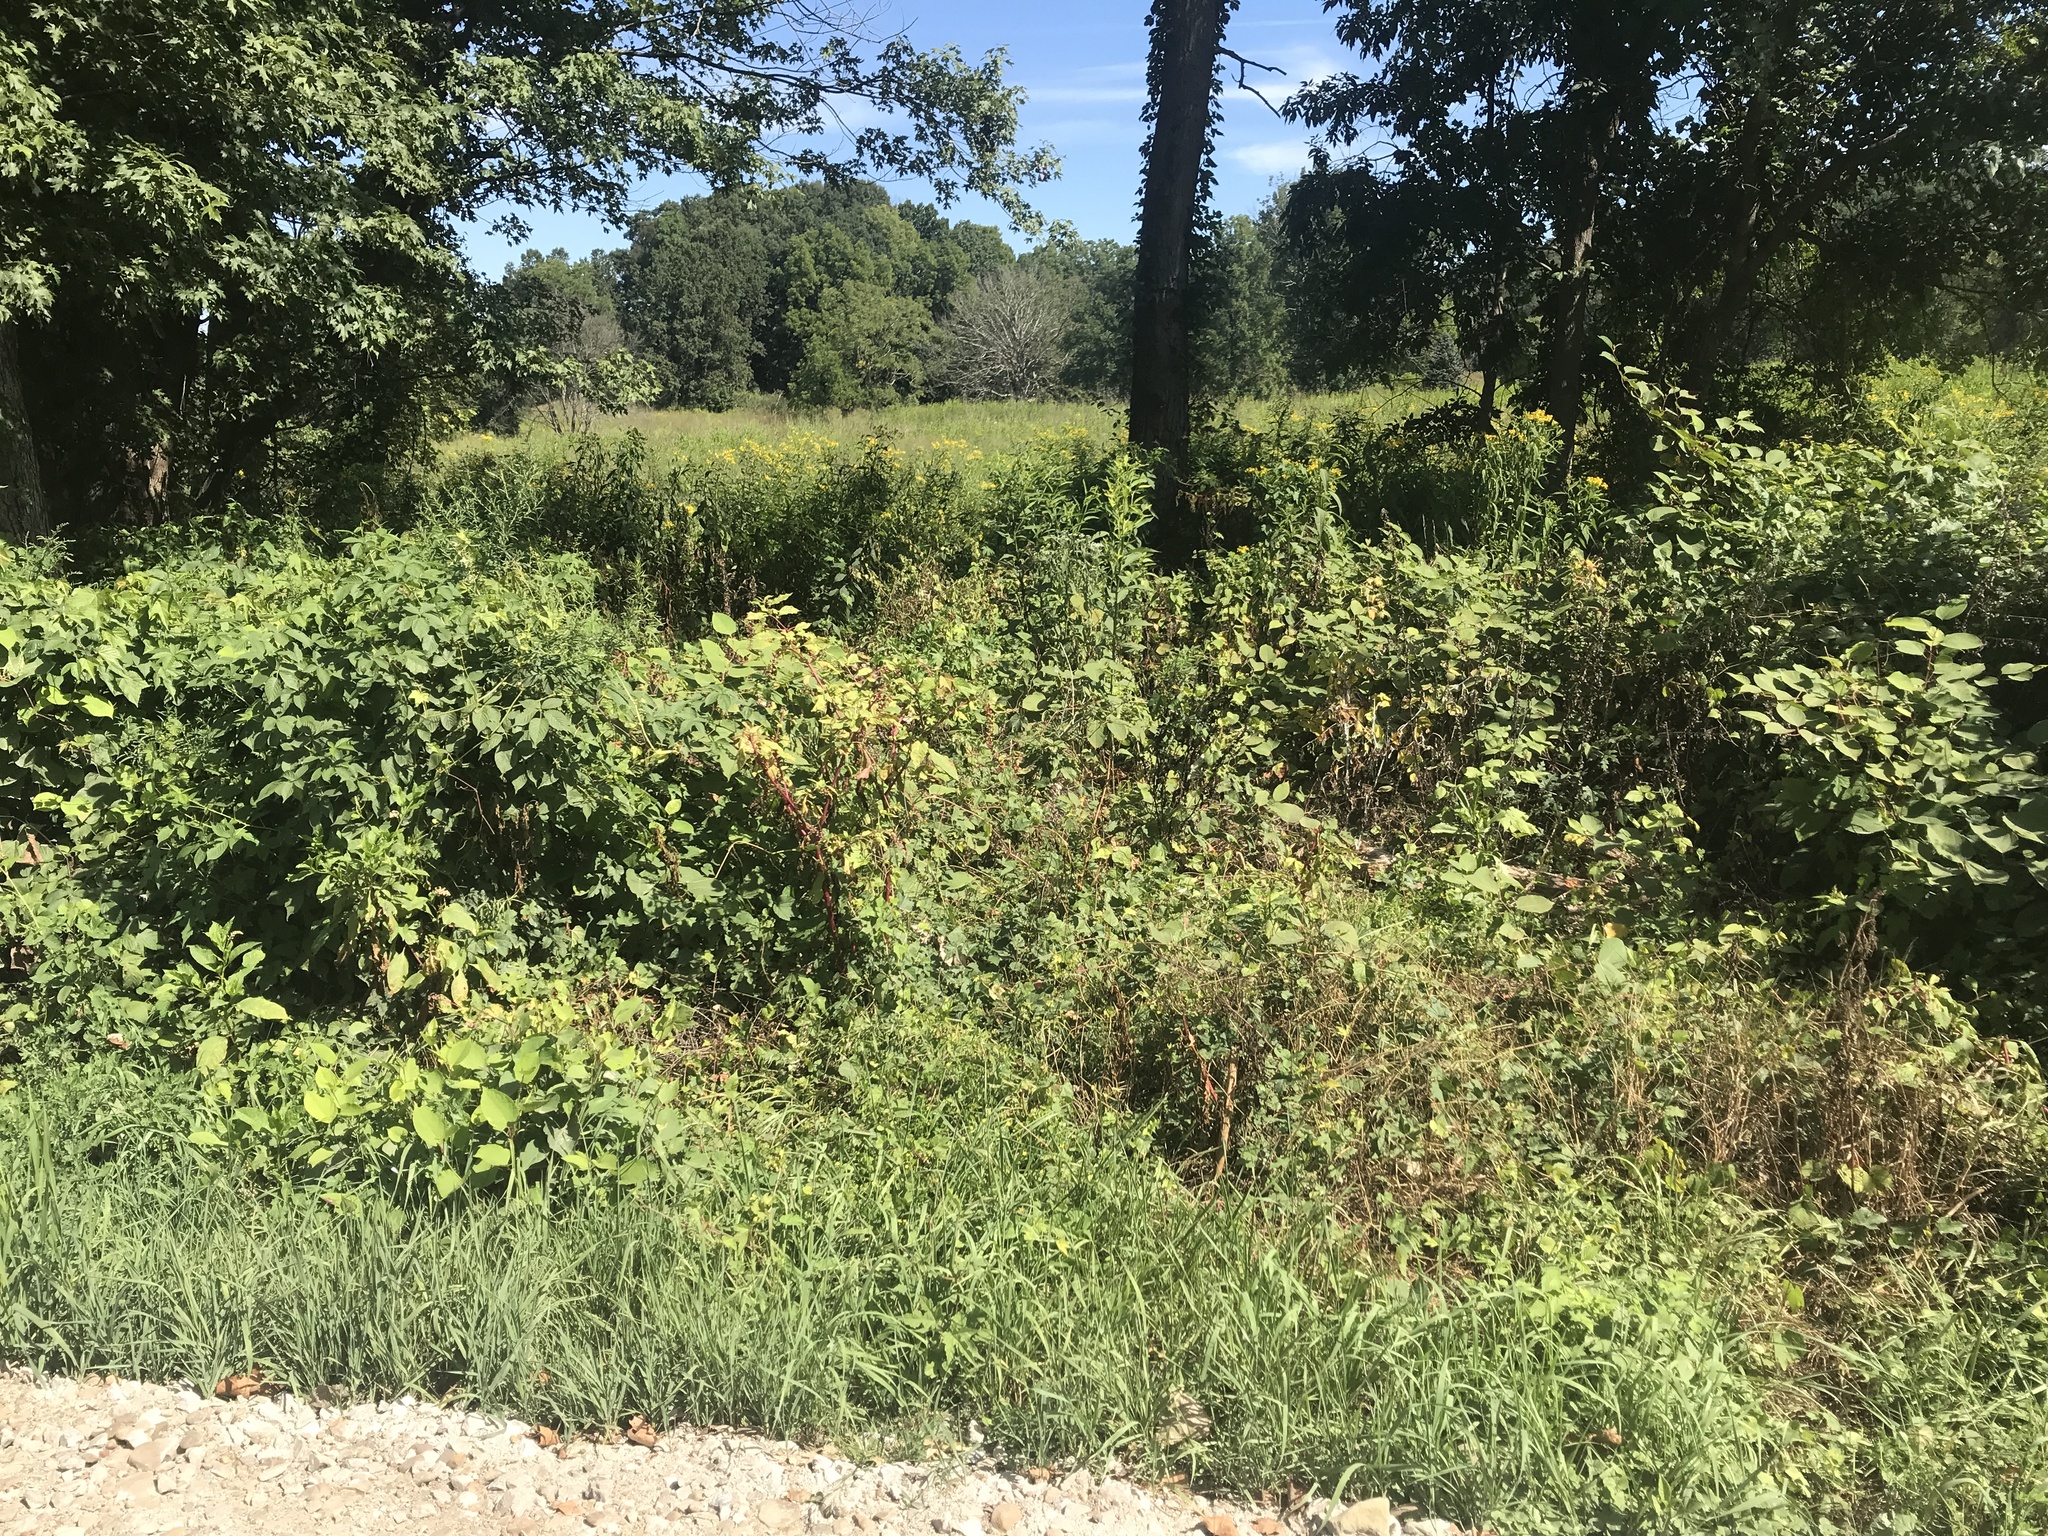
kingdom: Plantae
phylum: Tracheophyta
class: Magnoliopsida
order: Caryophyllales
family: Polygonaceae
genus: Reynoutria
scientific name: Reynoutria japonica
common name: Japanese knotweed
